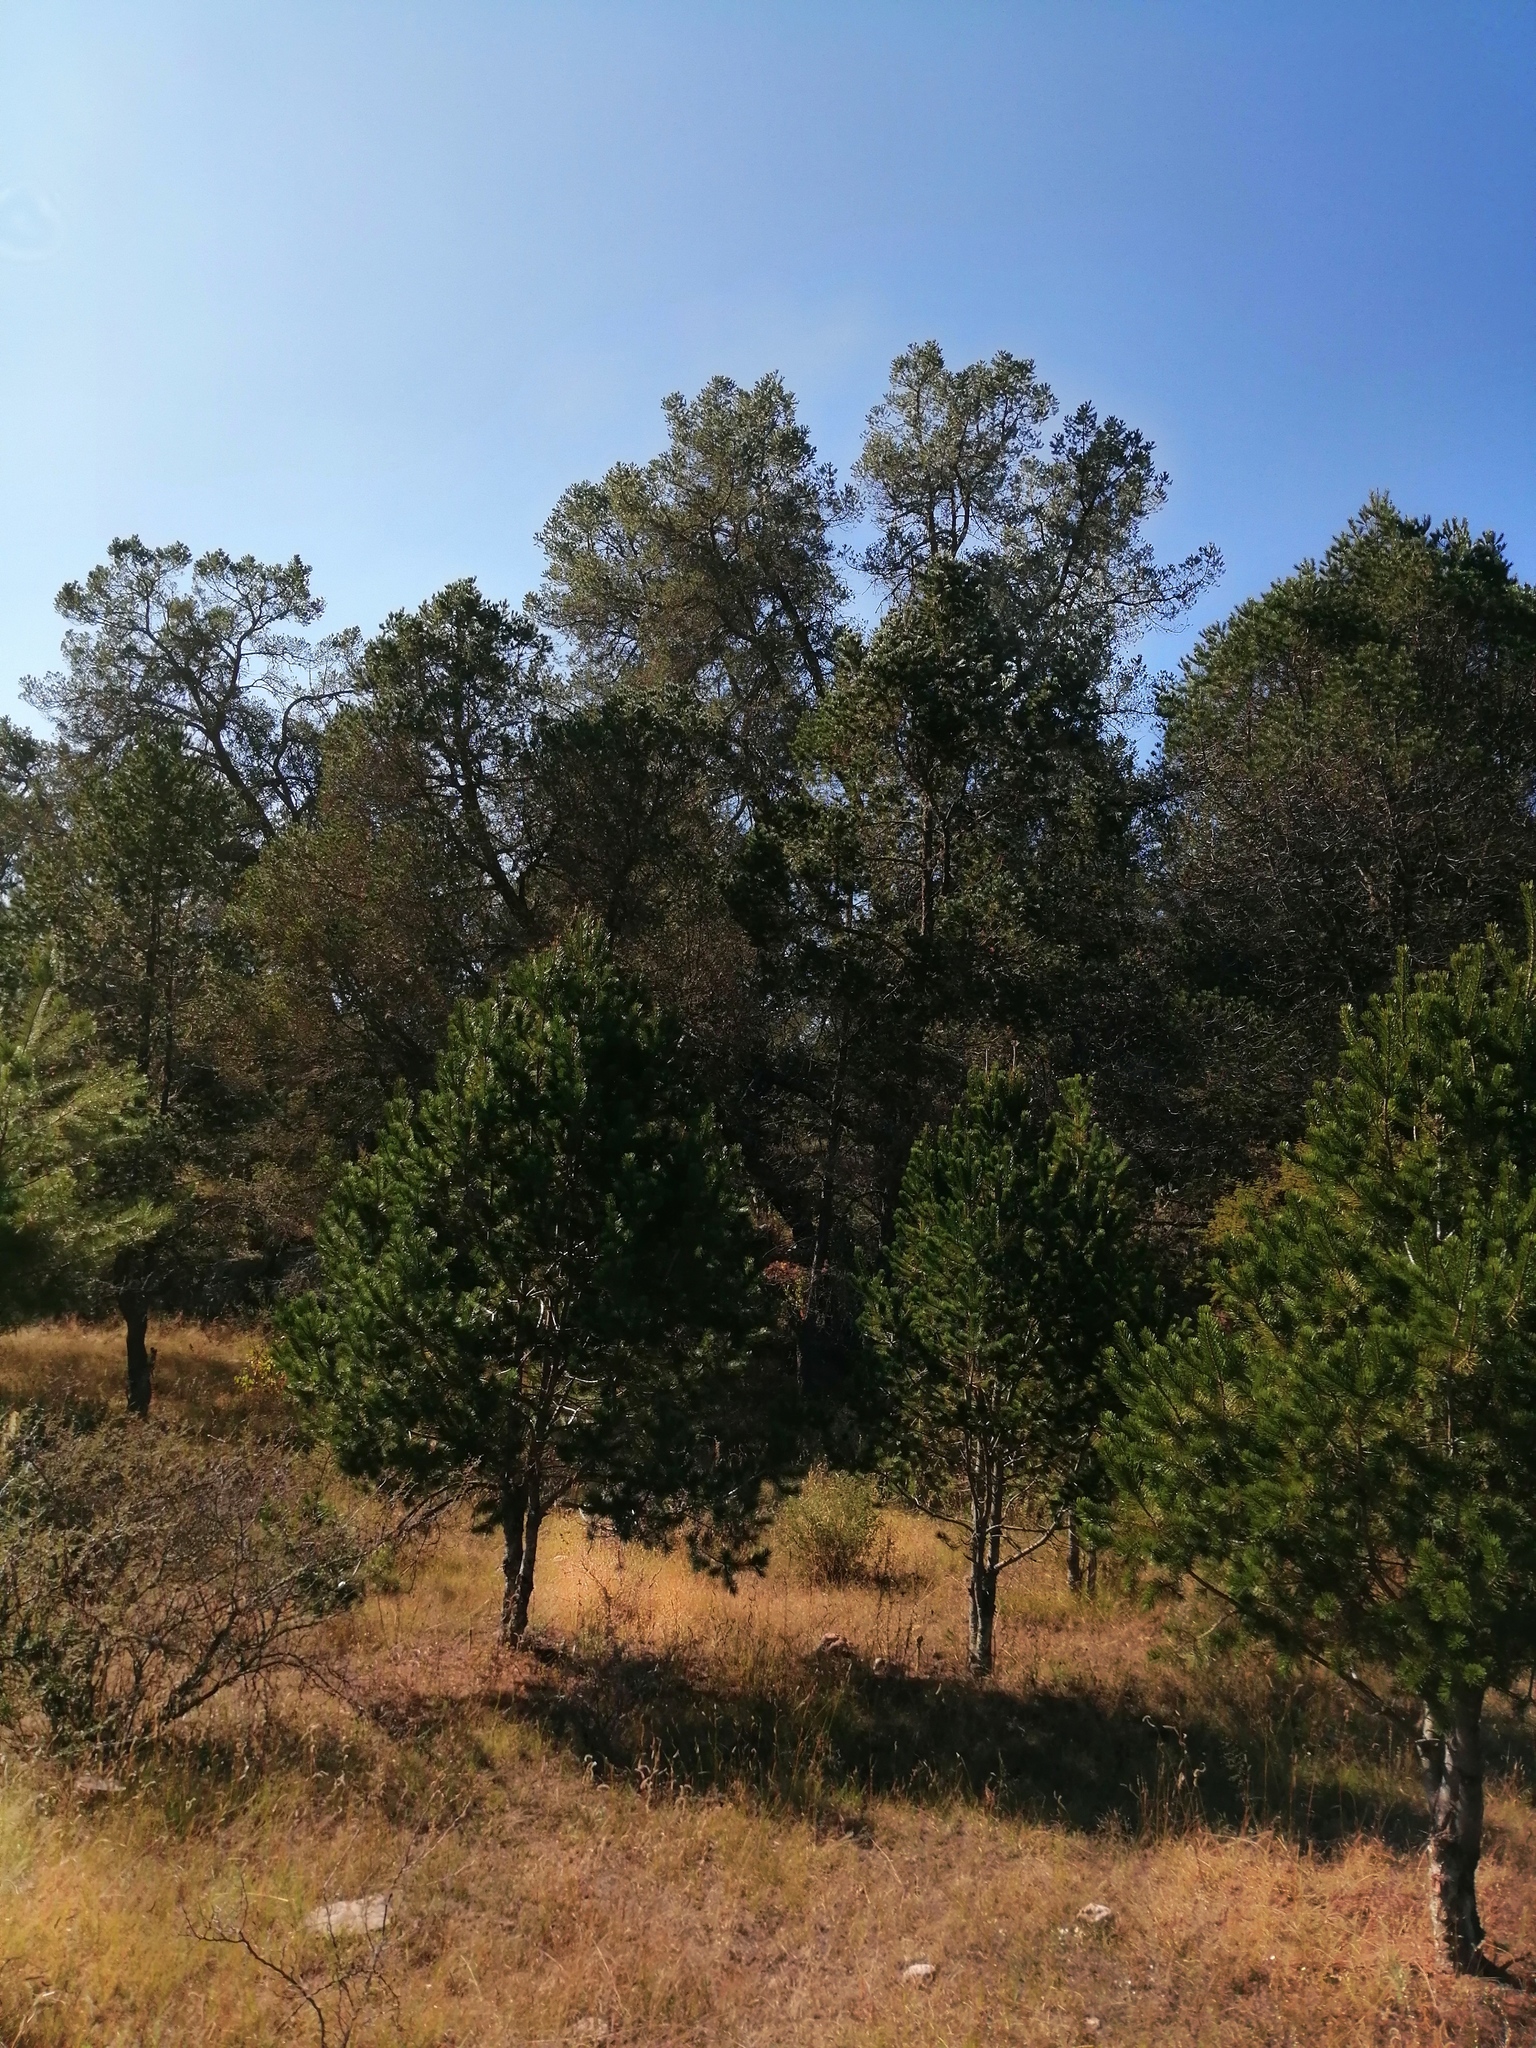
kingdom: Plantae
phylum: Tracheophyta
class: Pinopsida
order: Pinales
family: Pinaceae
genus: Pinus
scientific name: Pinus cembroides
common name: Mexican nut pine
